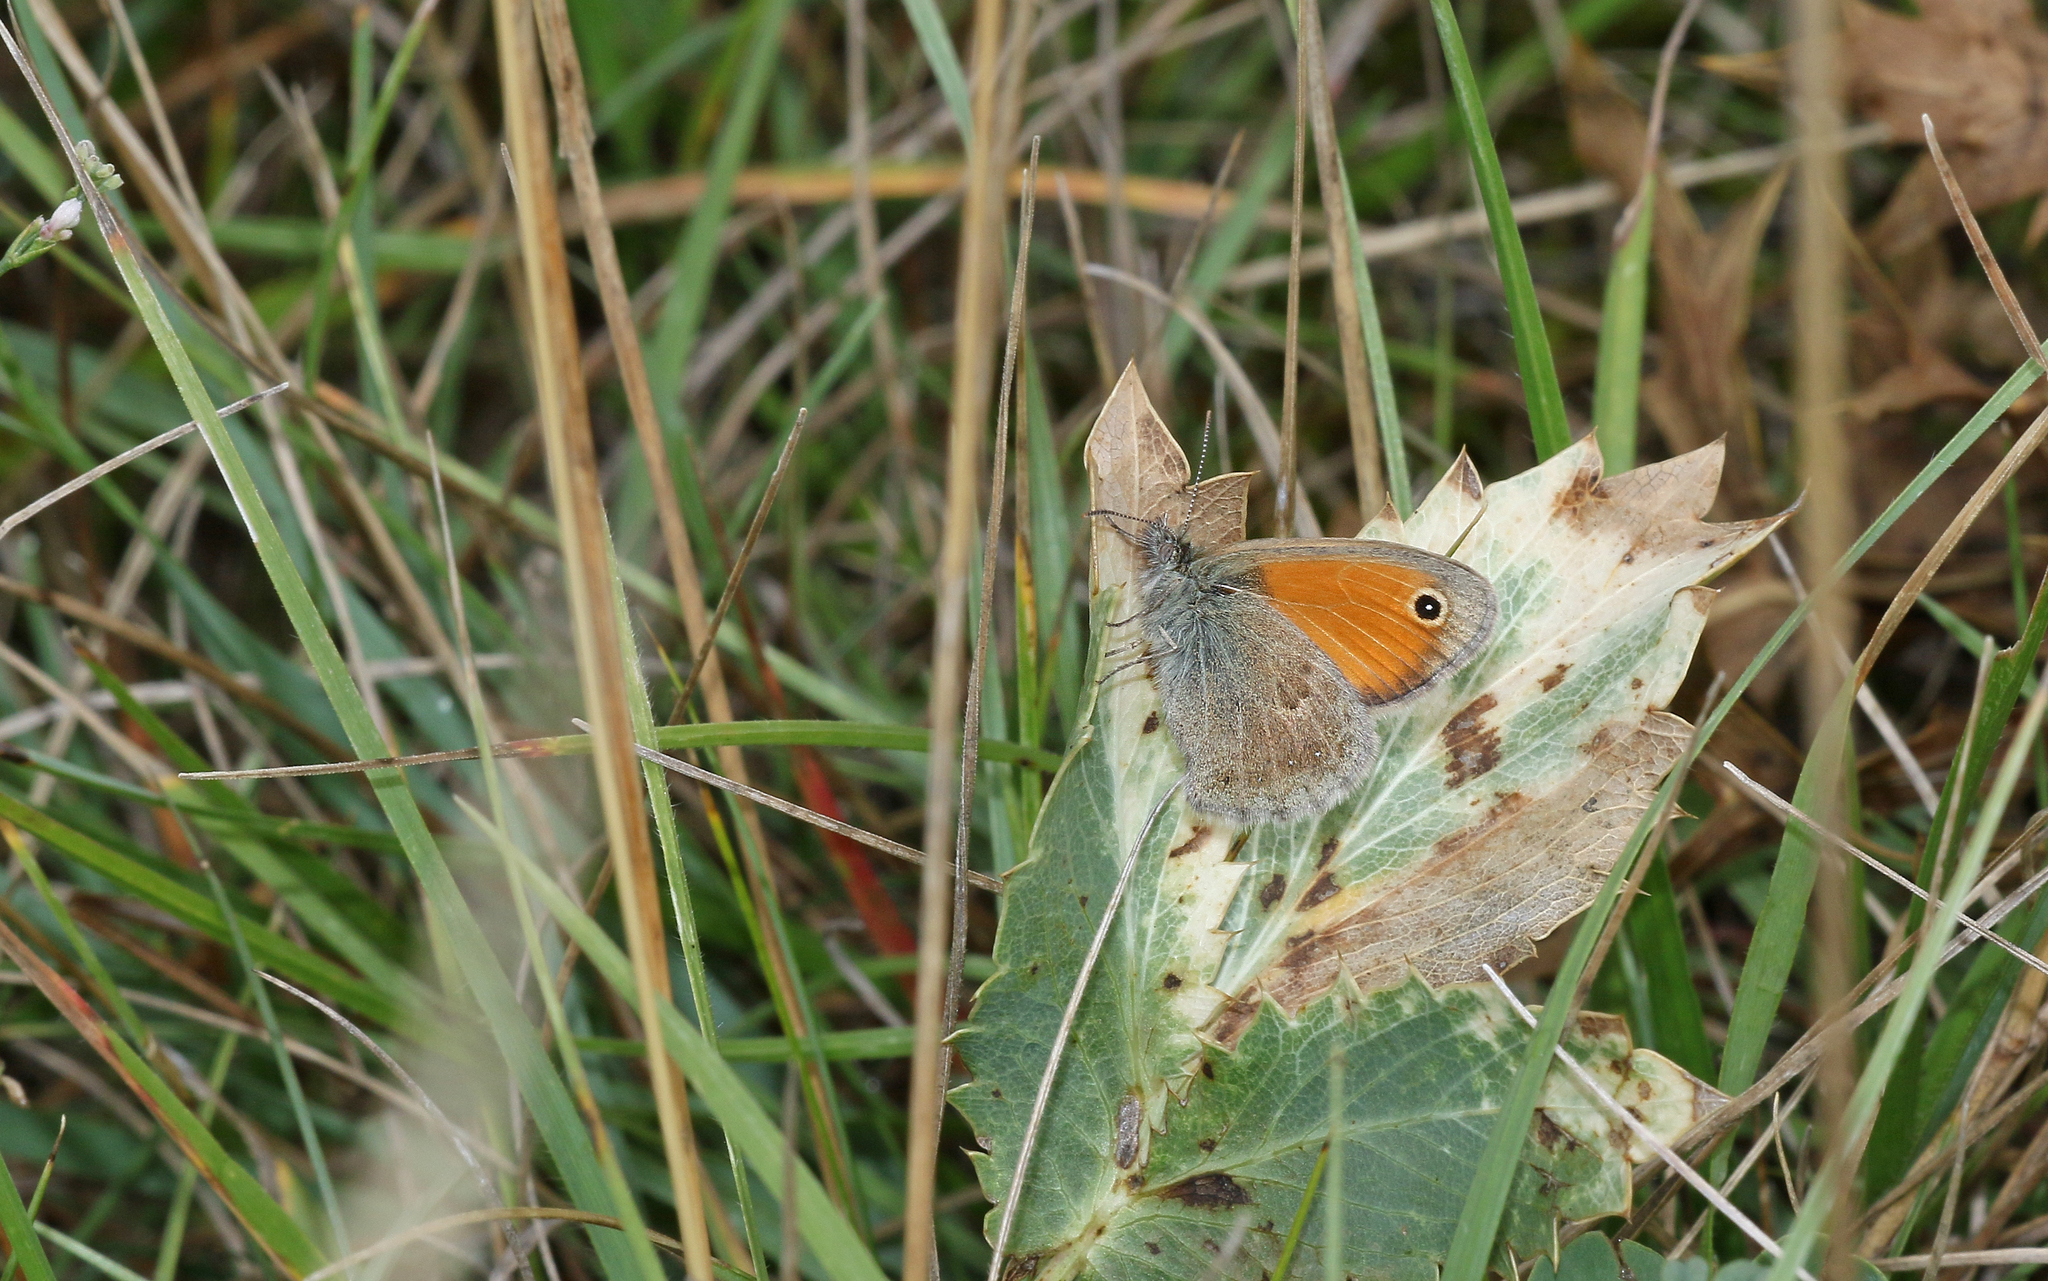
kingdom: Animalia
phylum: Arthropoda
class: Insecta
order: Lepidoptera
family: Nymphalidae
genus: Coenonympha
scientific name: Coenonympha pamphilus
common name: Small heath
